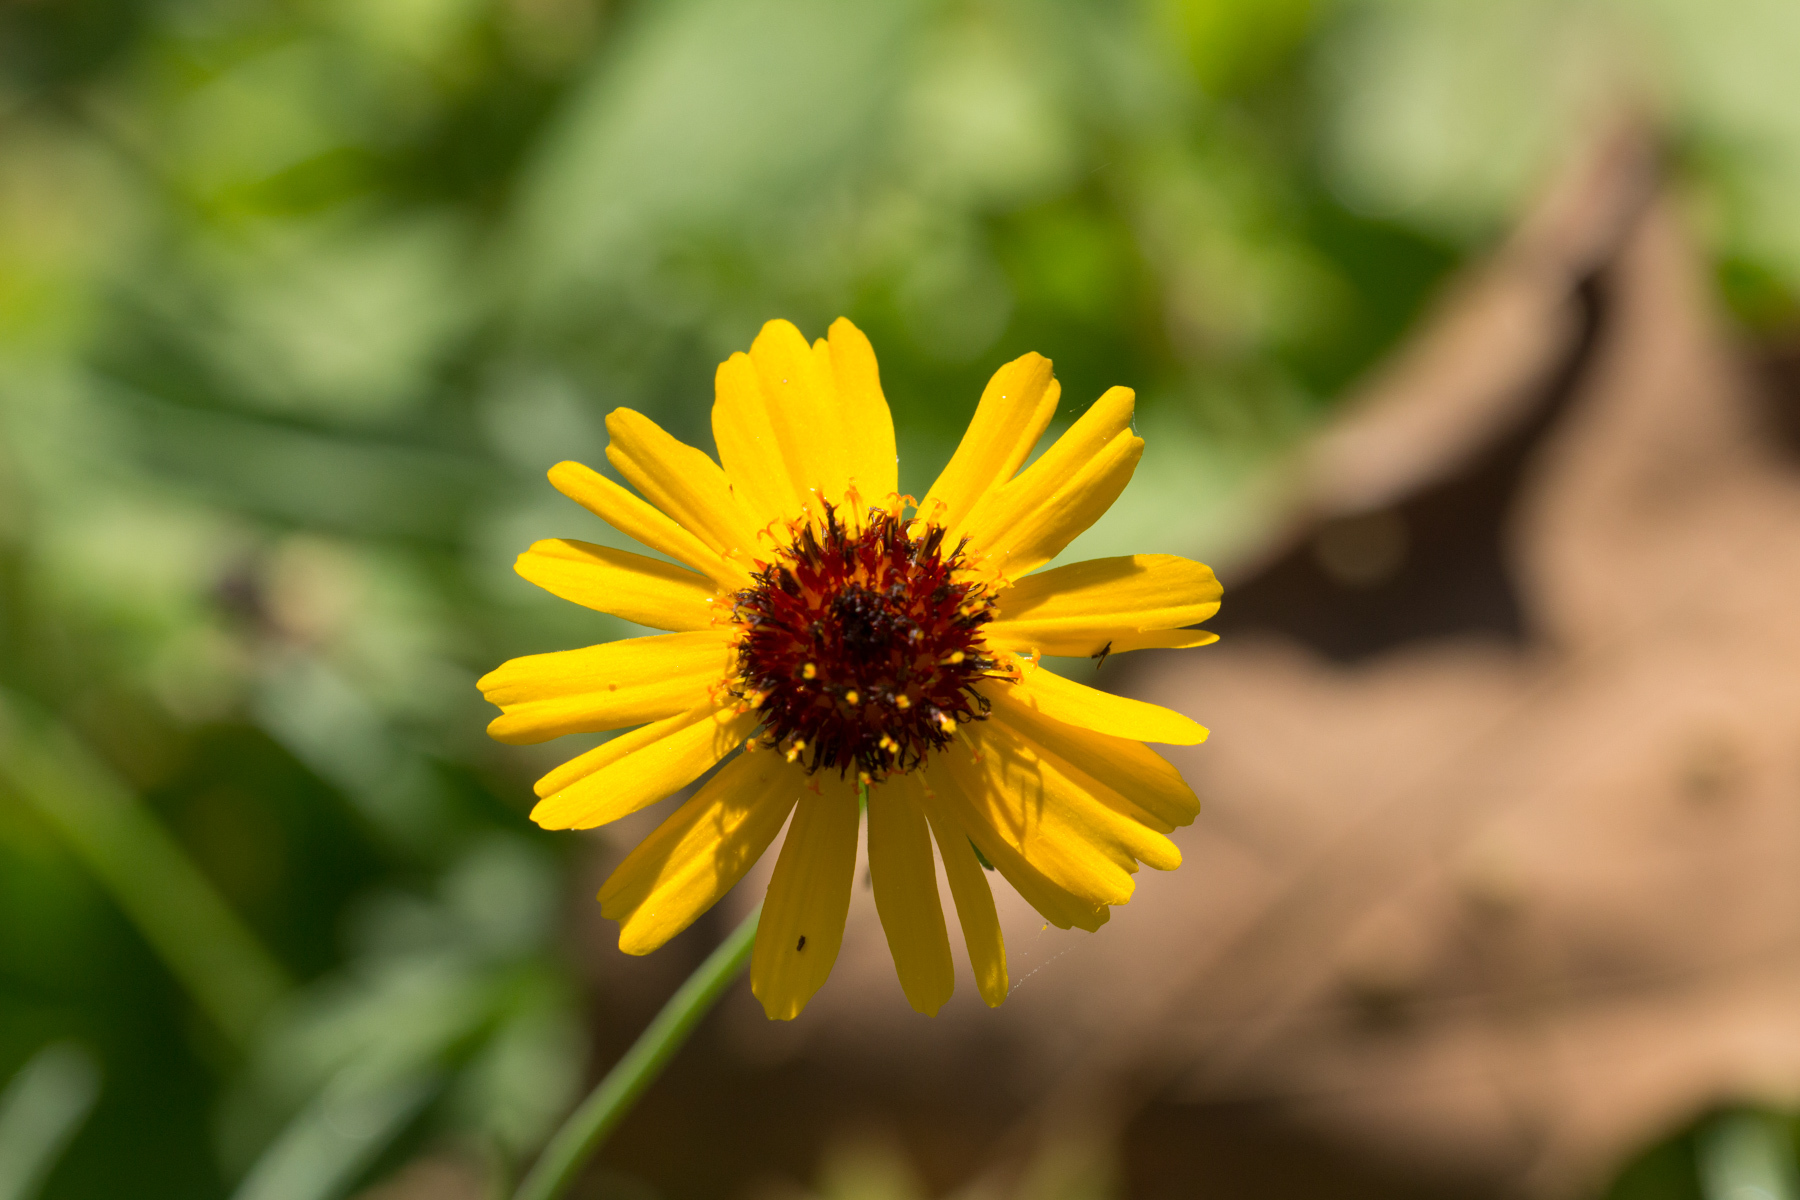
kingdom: Plantae
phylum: Tracheophyta
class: Magnoliopsida
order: Asterales
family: Asteraceae
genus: Thelesperma
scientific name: Thelesperma filifolium
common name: Stiff greenthread
